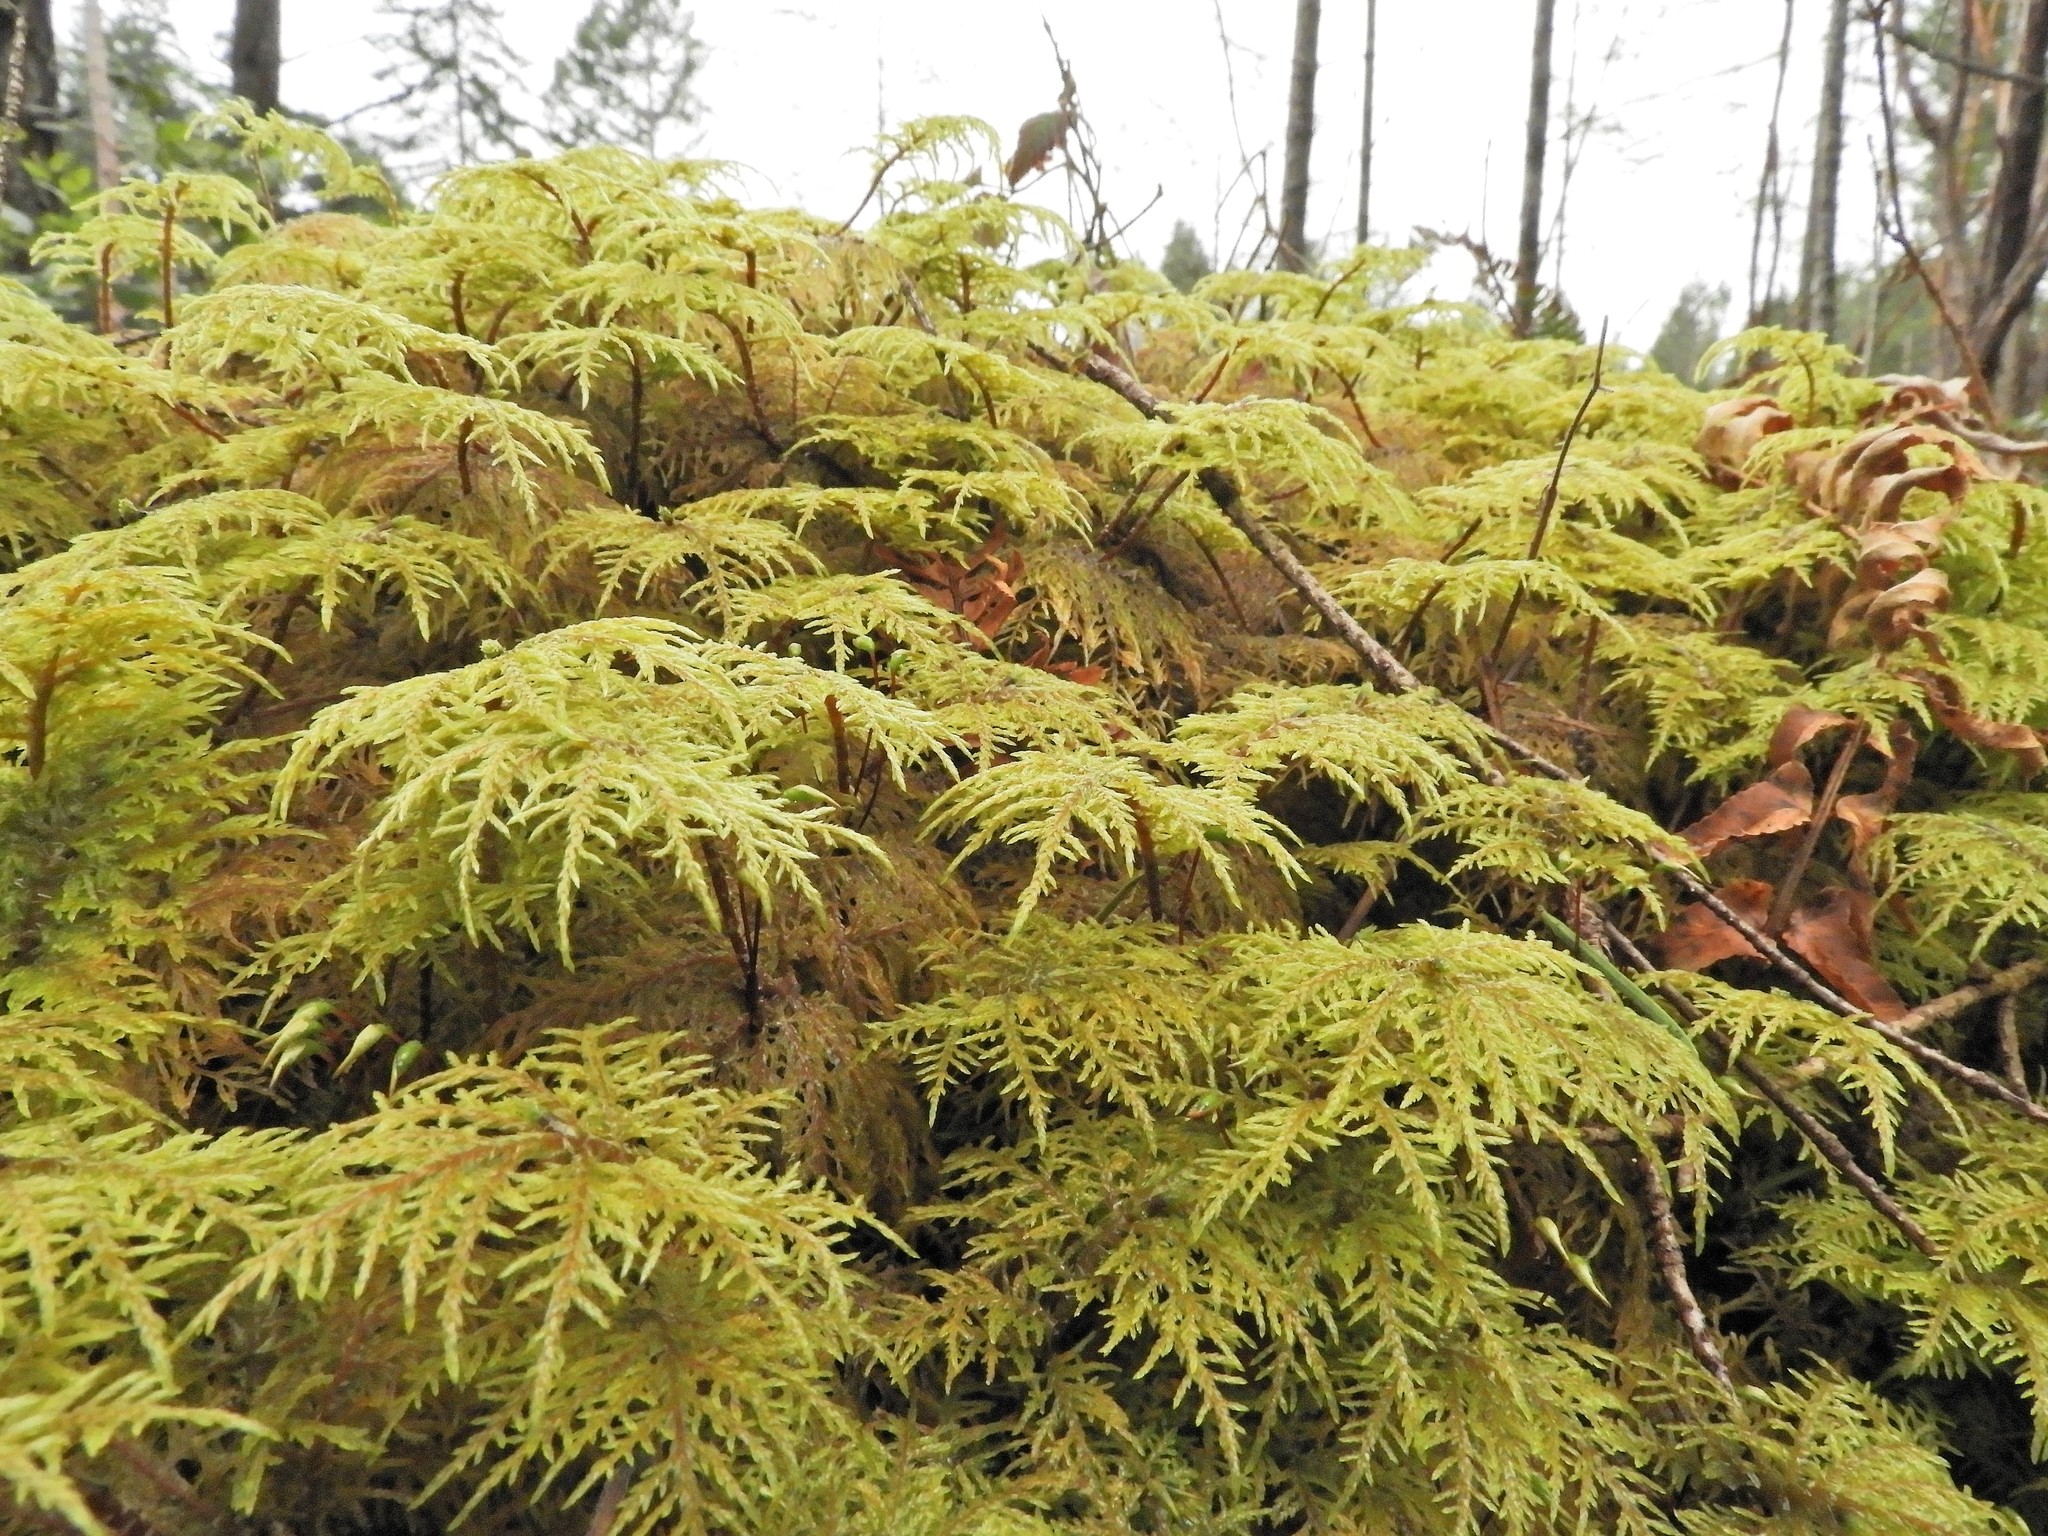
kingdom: Plantae
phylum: Bryophyta
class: Bryopsida
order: Hypnales
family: Hylocomiaceae
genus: Hylocomium
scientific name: Hylocomium splendens
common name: Stairstep moss
